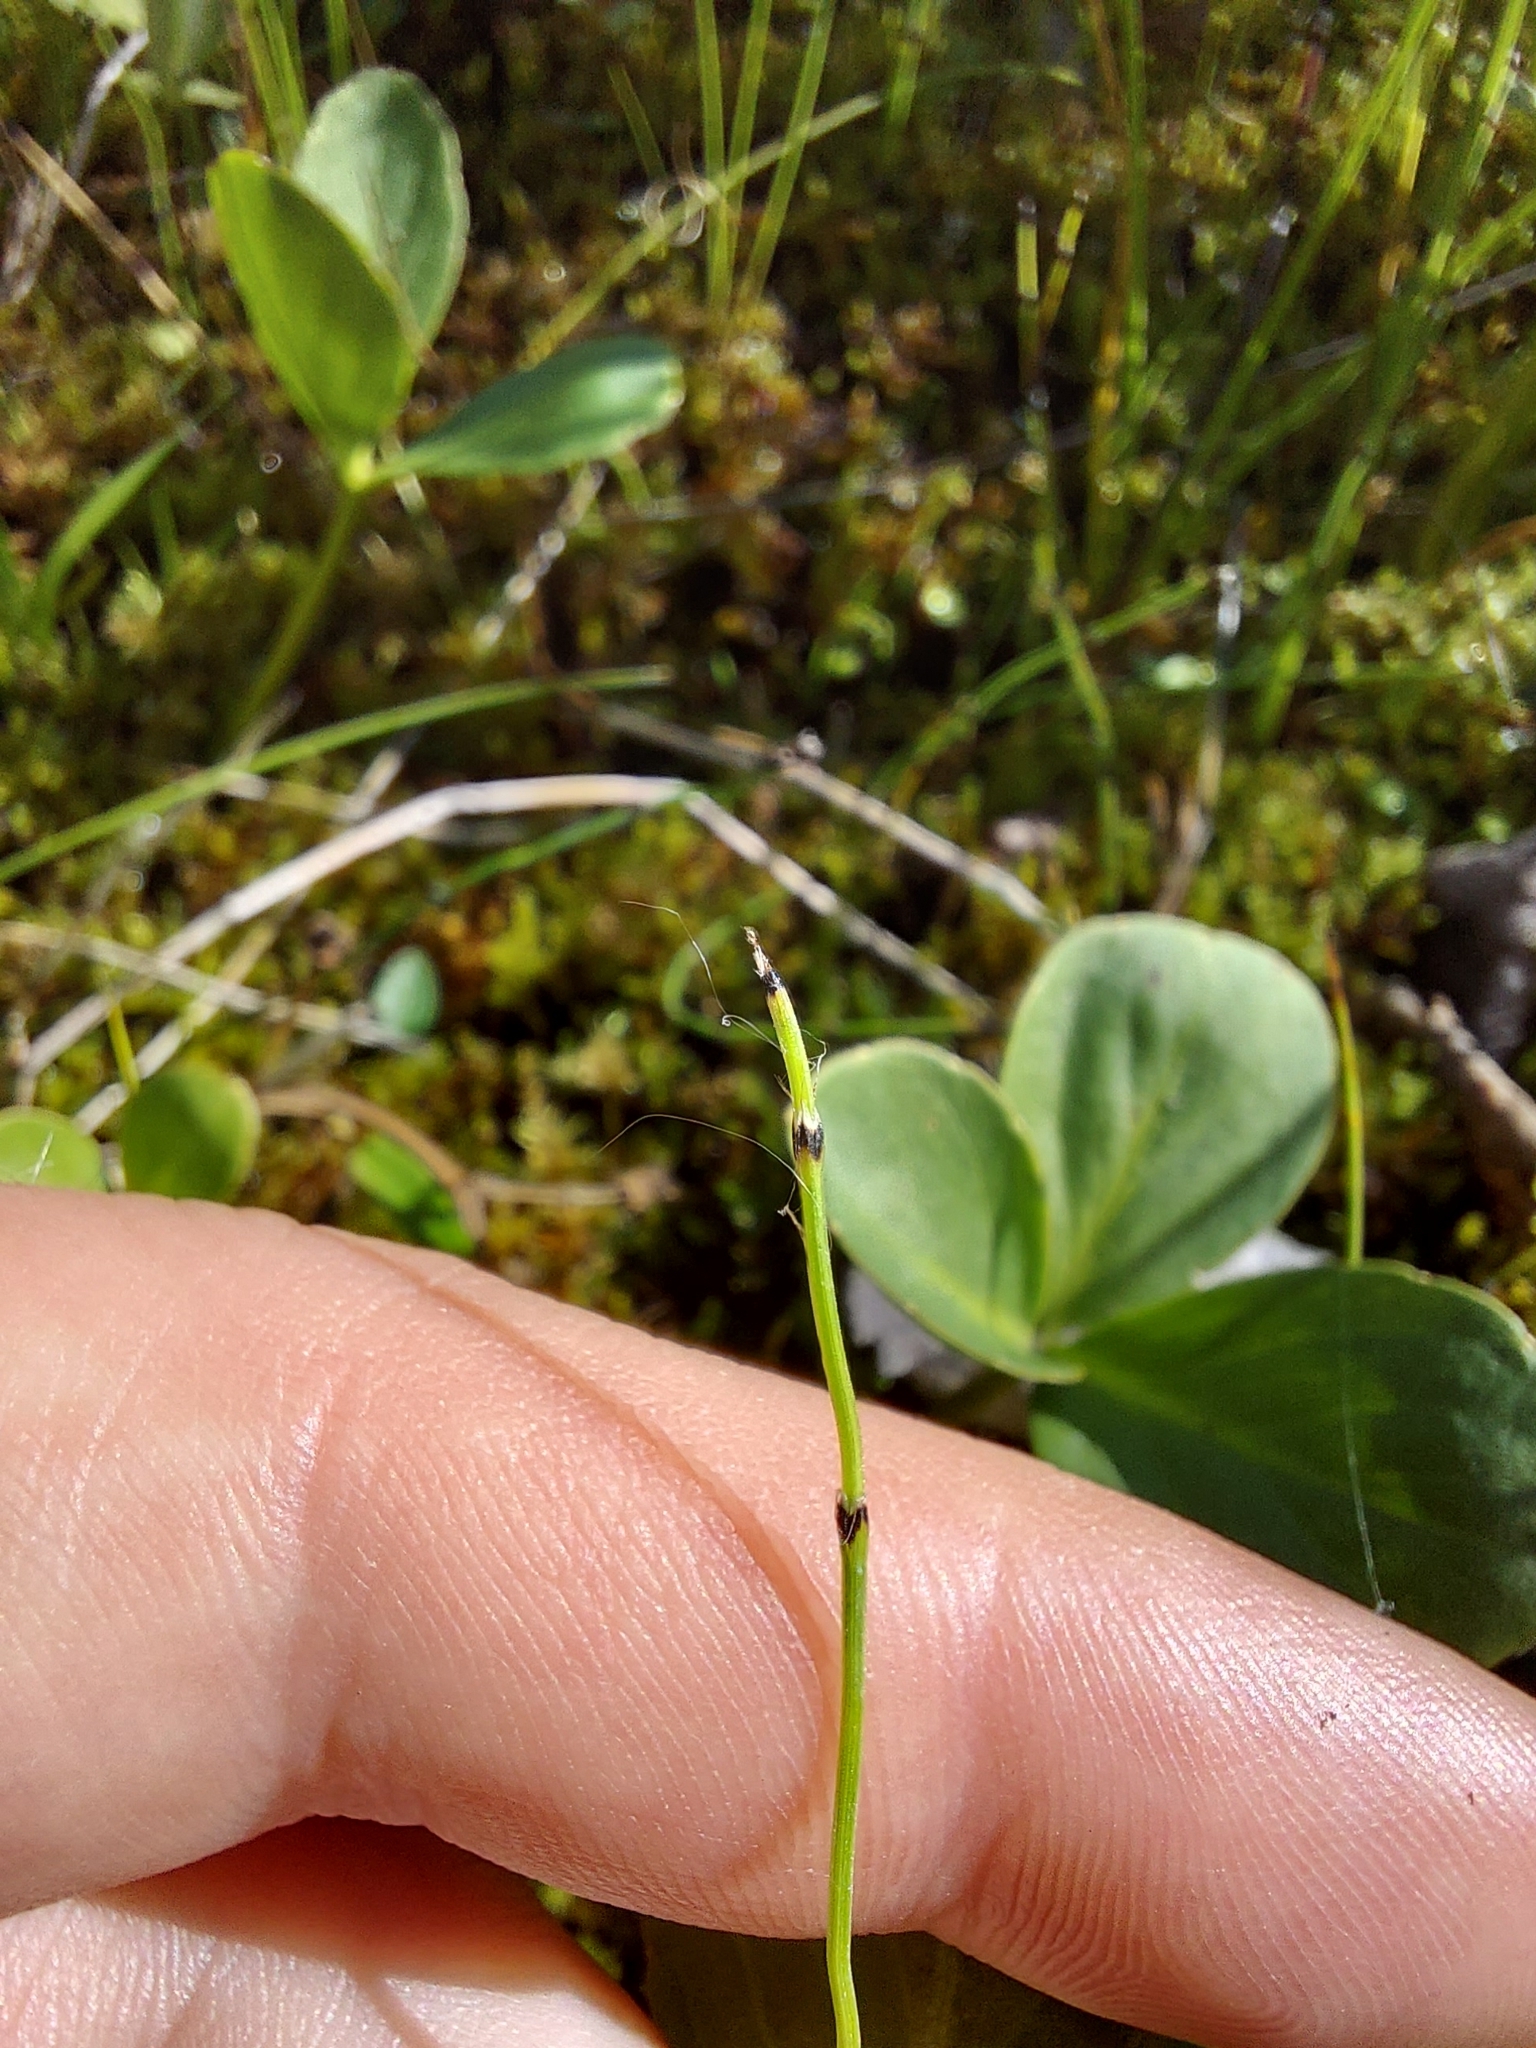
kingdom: Plantae
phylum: Tracheophyta
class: Polypodiopsida
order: Equisetales
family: Equisetaceae
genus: Equisetum
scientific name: Equisetum scirpoides
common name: Delicate horsetail
